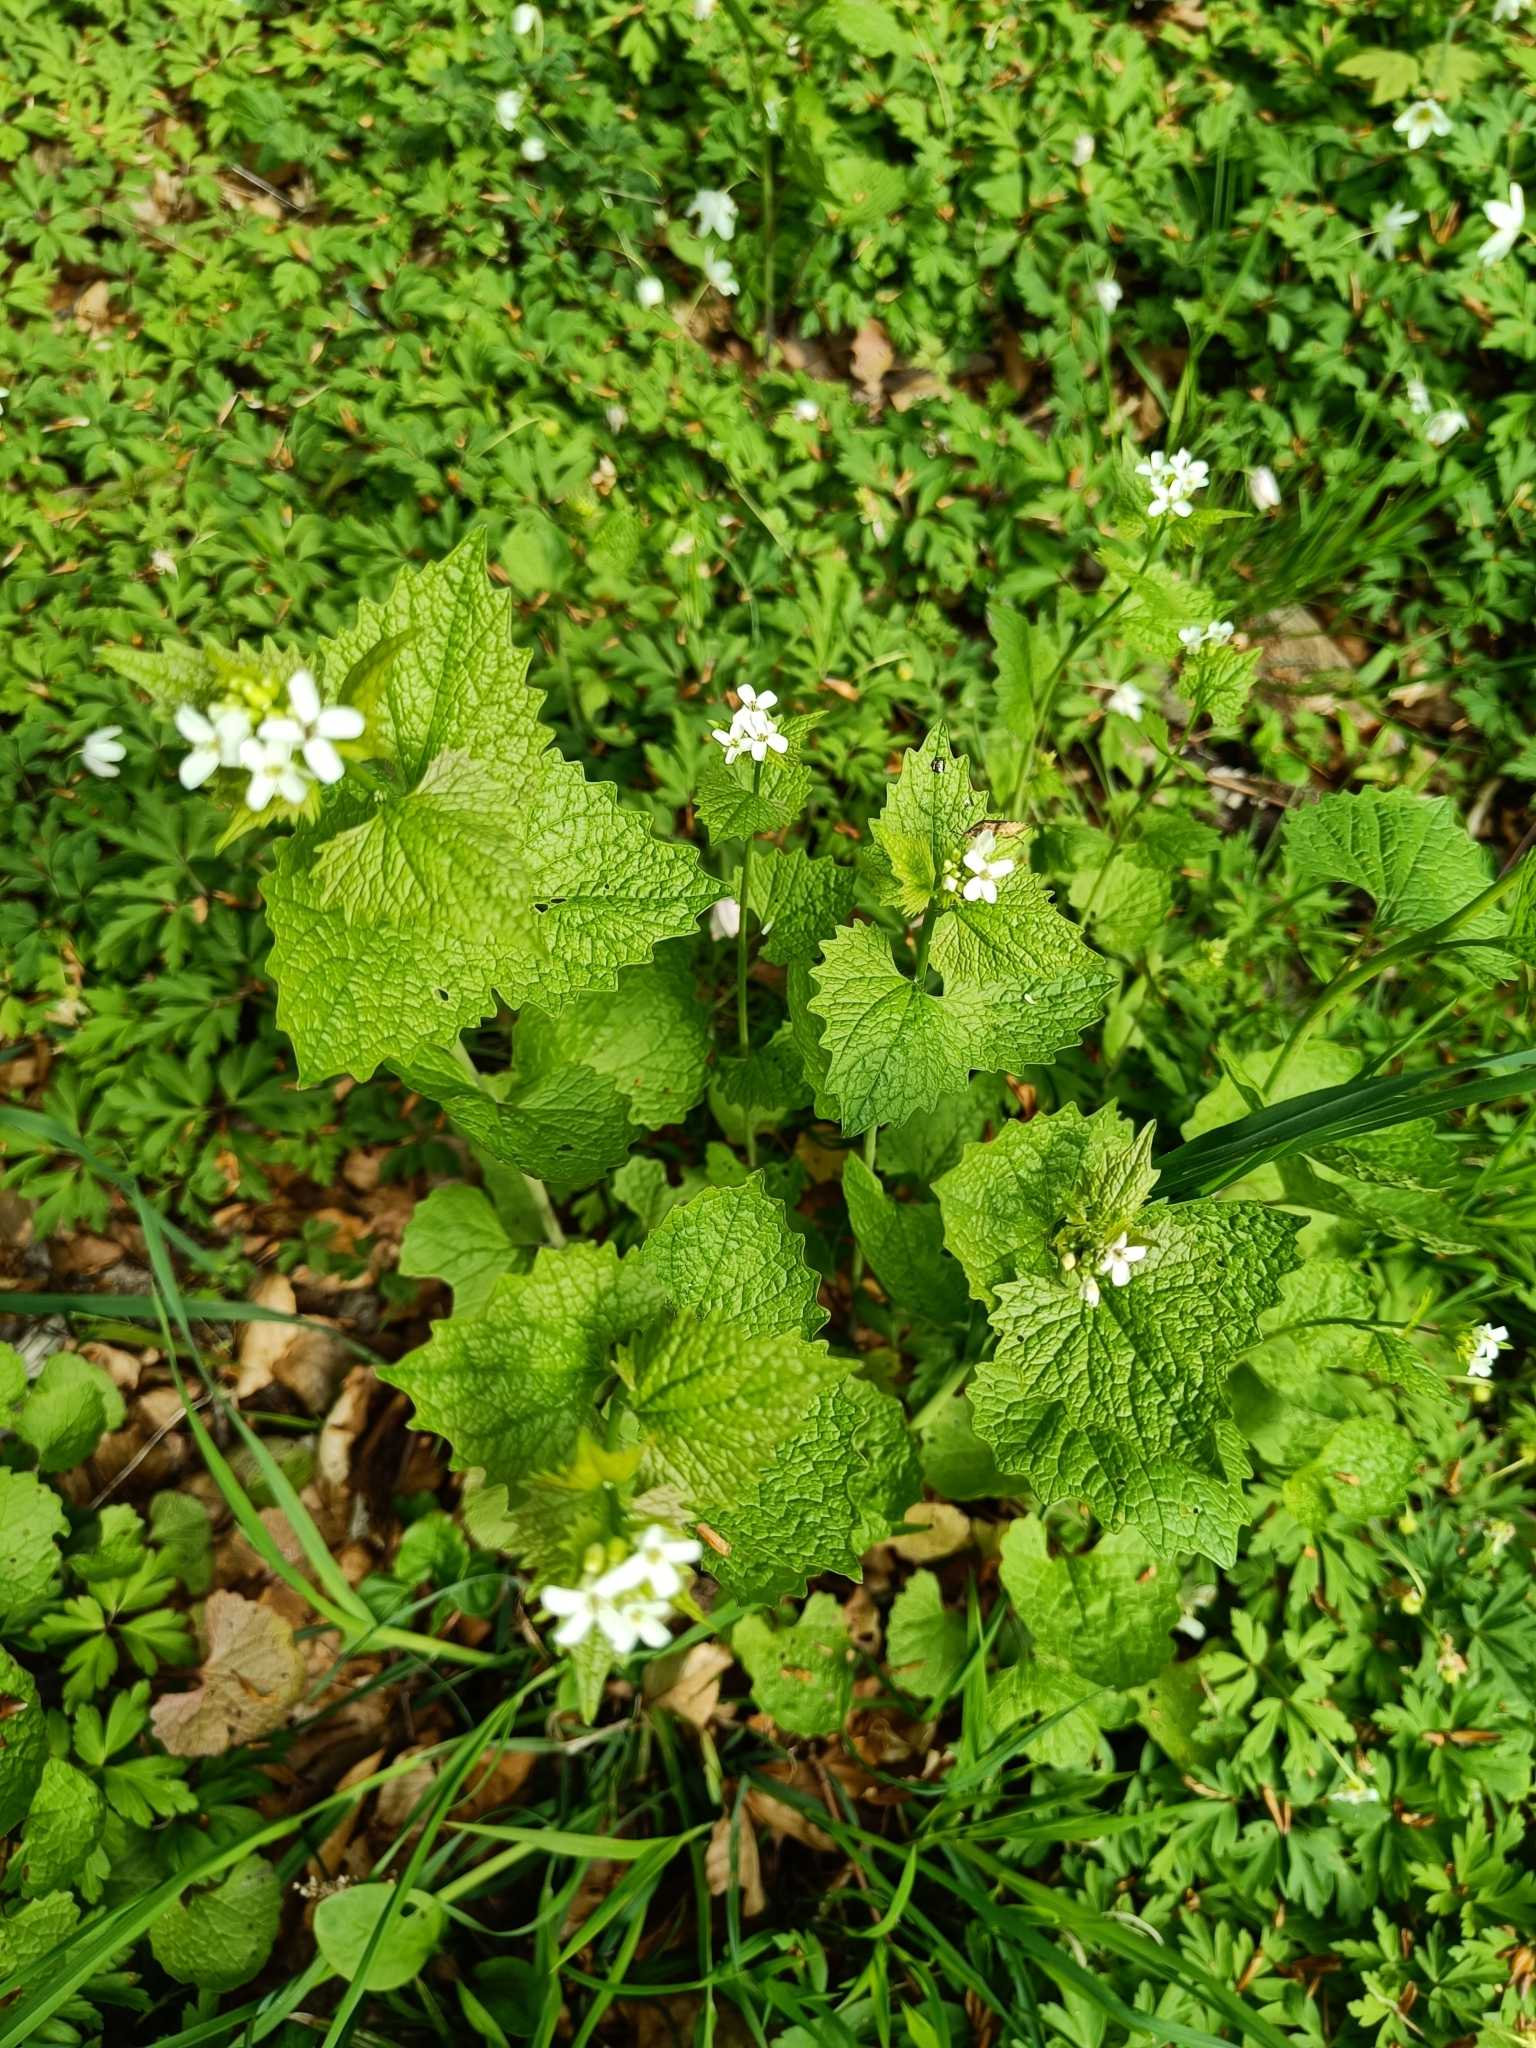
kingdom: Plantae
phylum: Tracheophyta
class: Magnoliopsida
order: Brassicales
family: Brassicaceae
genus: Alliaria
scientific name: Alliaria petiolata
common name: Garlic mustard
